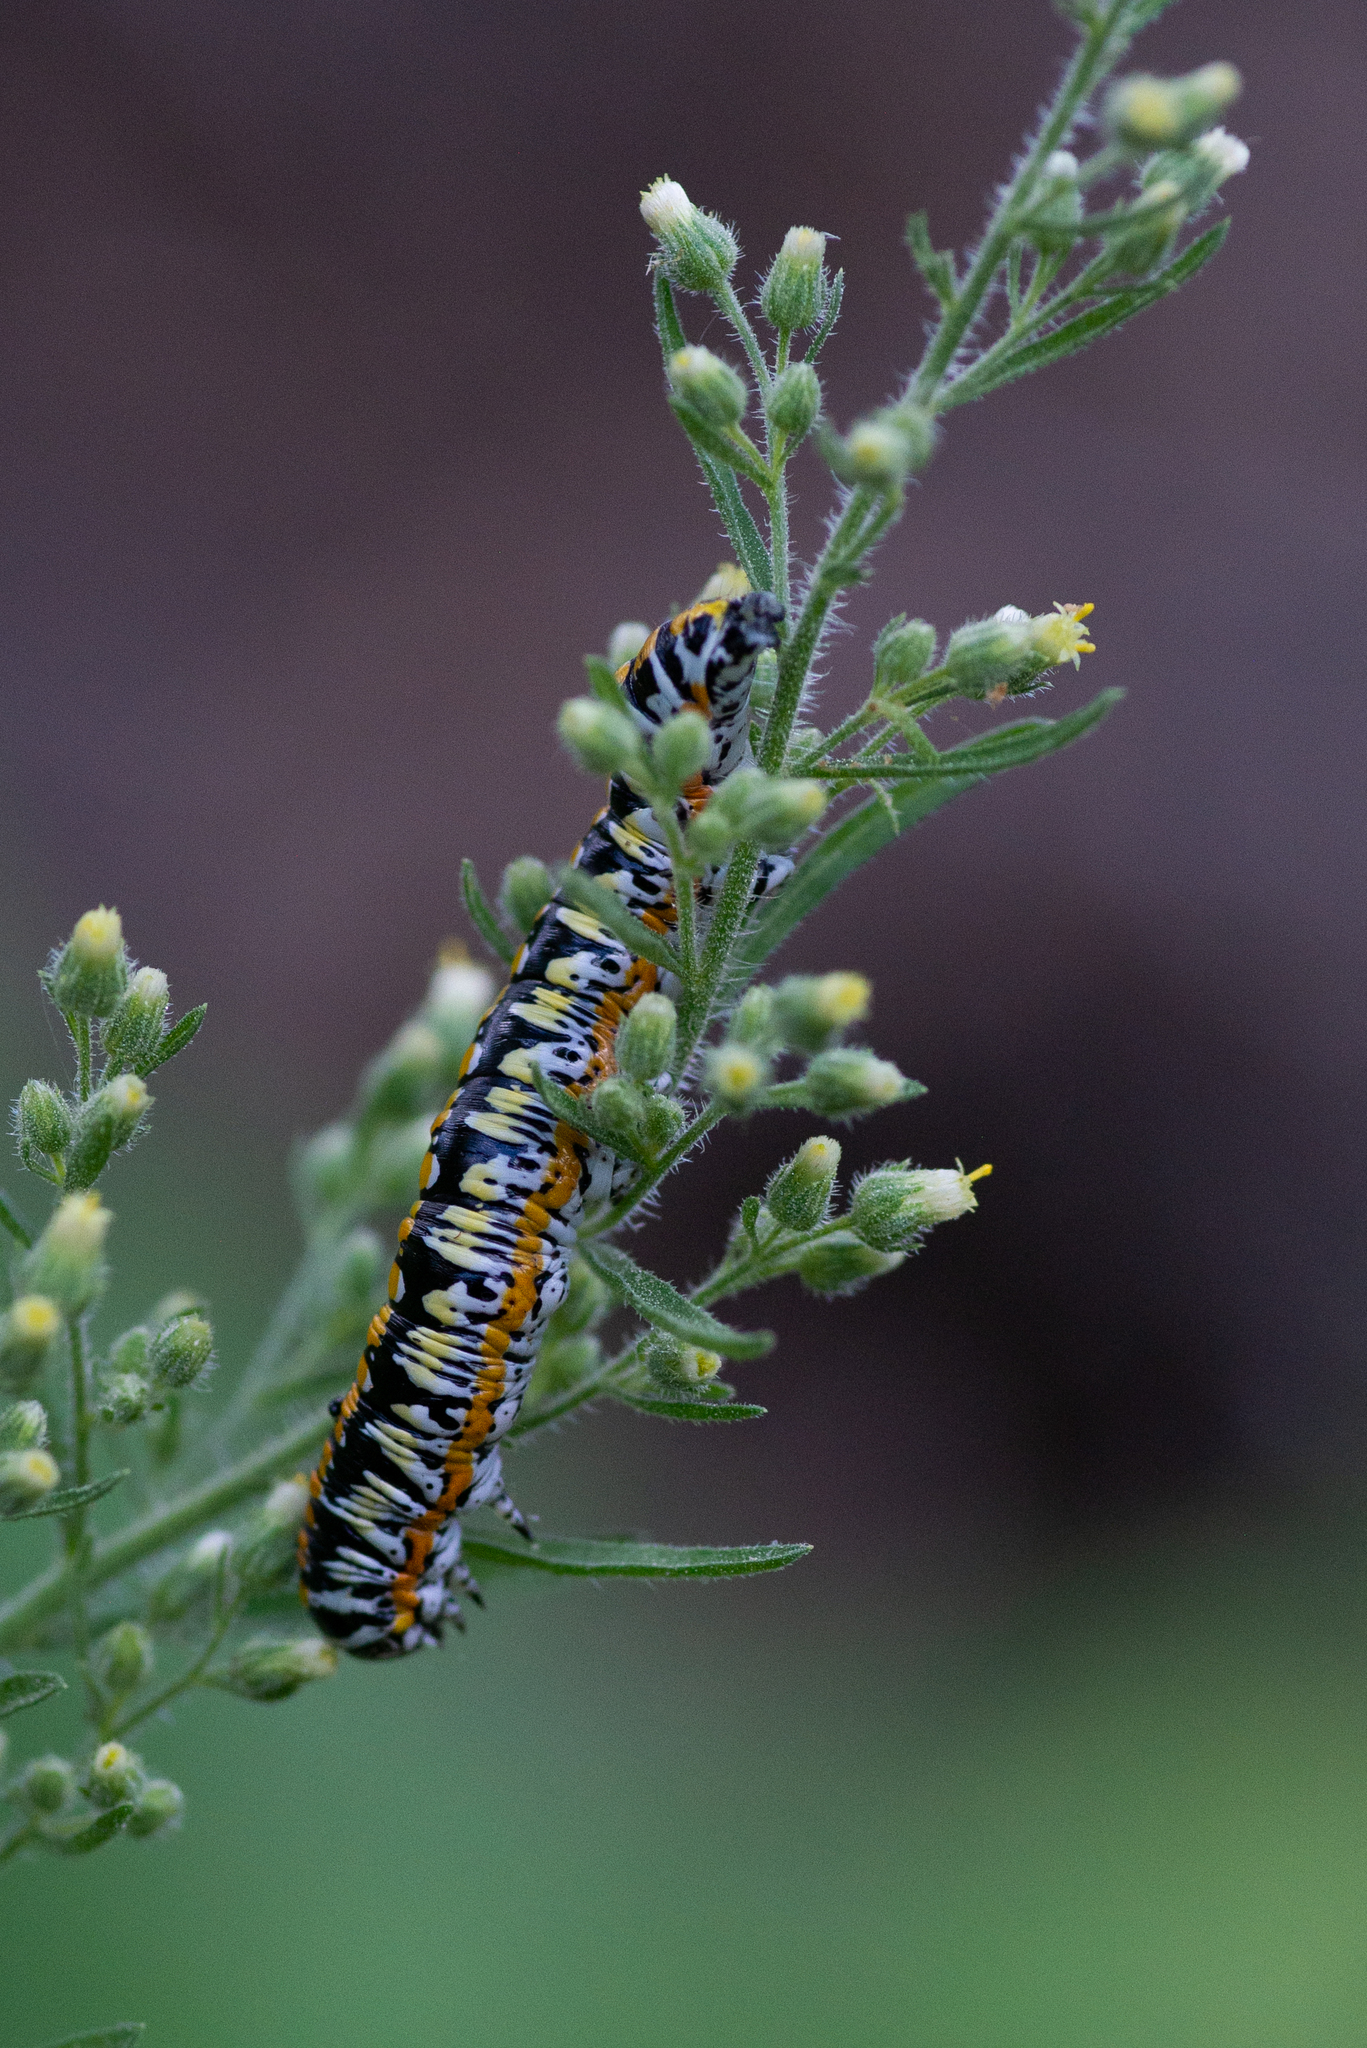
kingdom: Animalia
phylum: Arthropoda
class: Insecta
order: Lepidoptera
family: Noctuidae
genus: Cucullia
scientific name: Cucullia dorsalis
